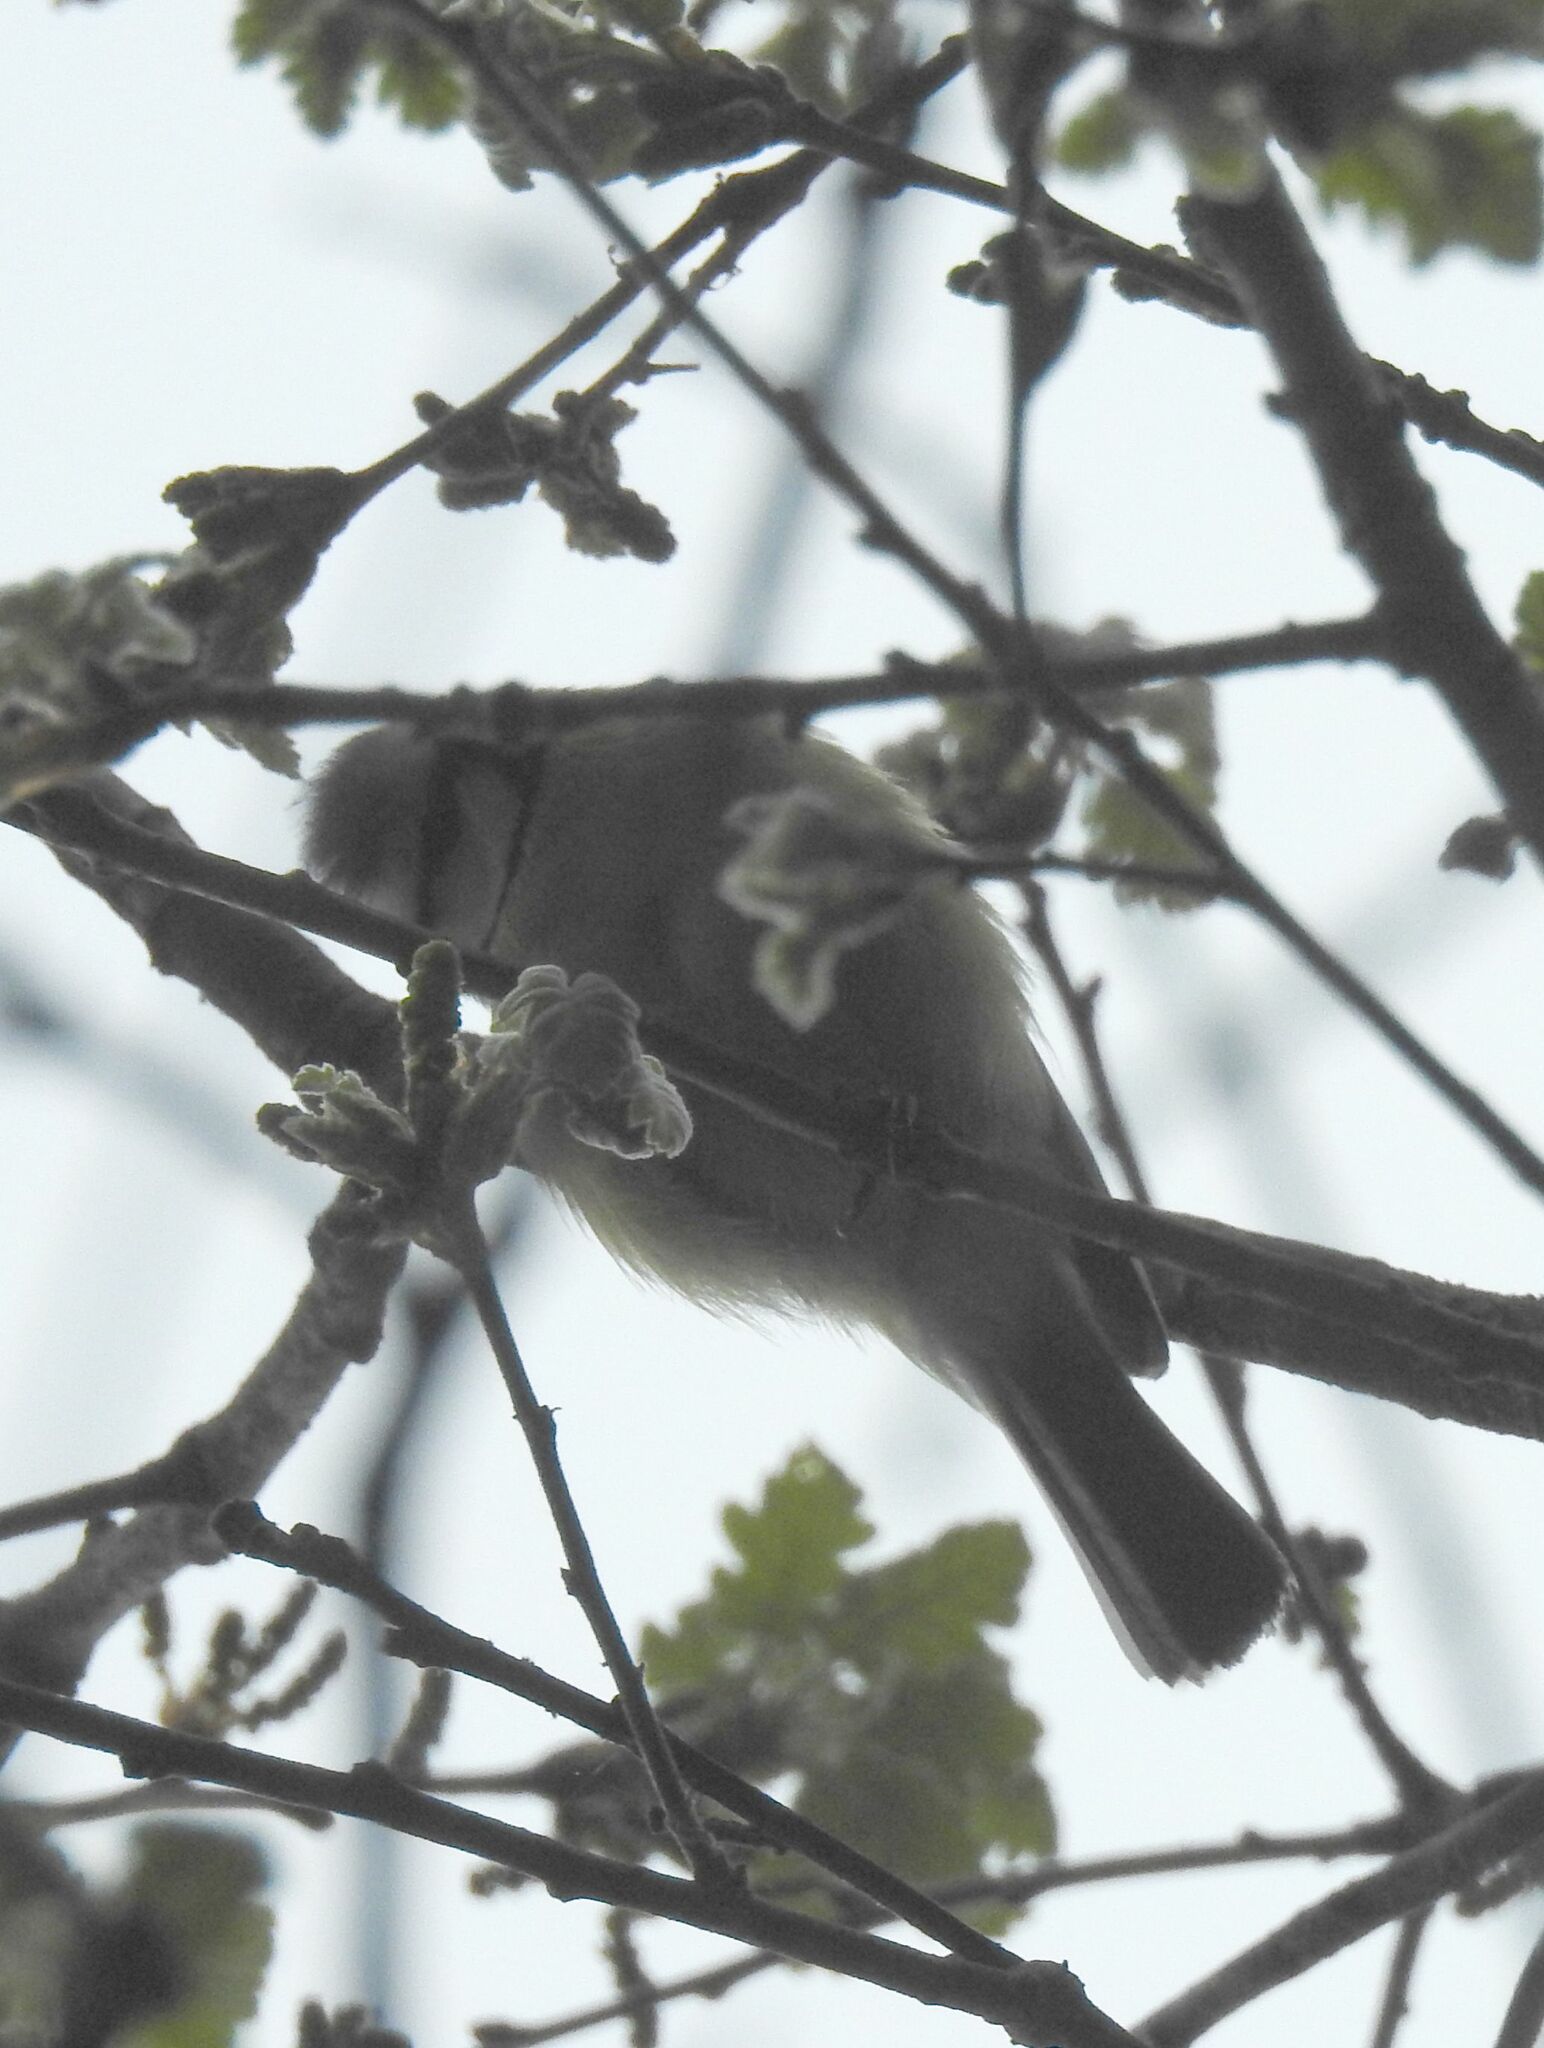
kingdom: Animalia
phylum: Chordata
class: Aves
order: Passeriformes
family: Paridae
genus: Cyanistes
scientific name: Cyanistes caeruleus
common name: Eurasian blue tit
